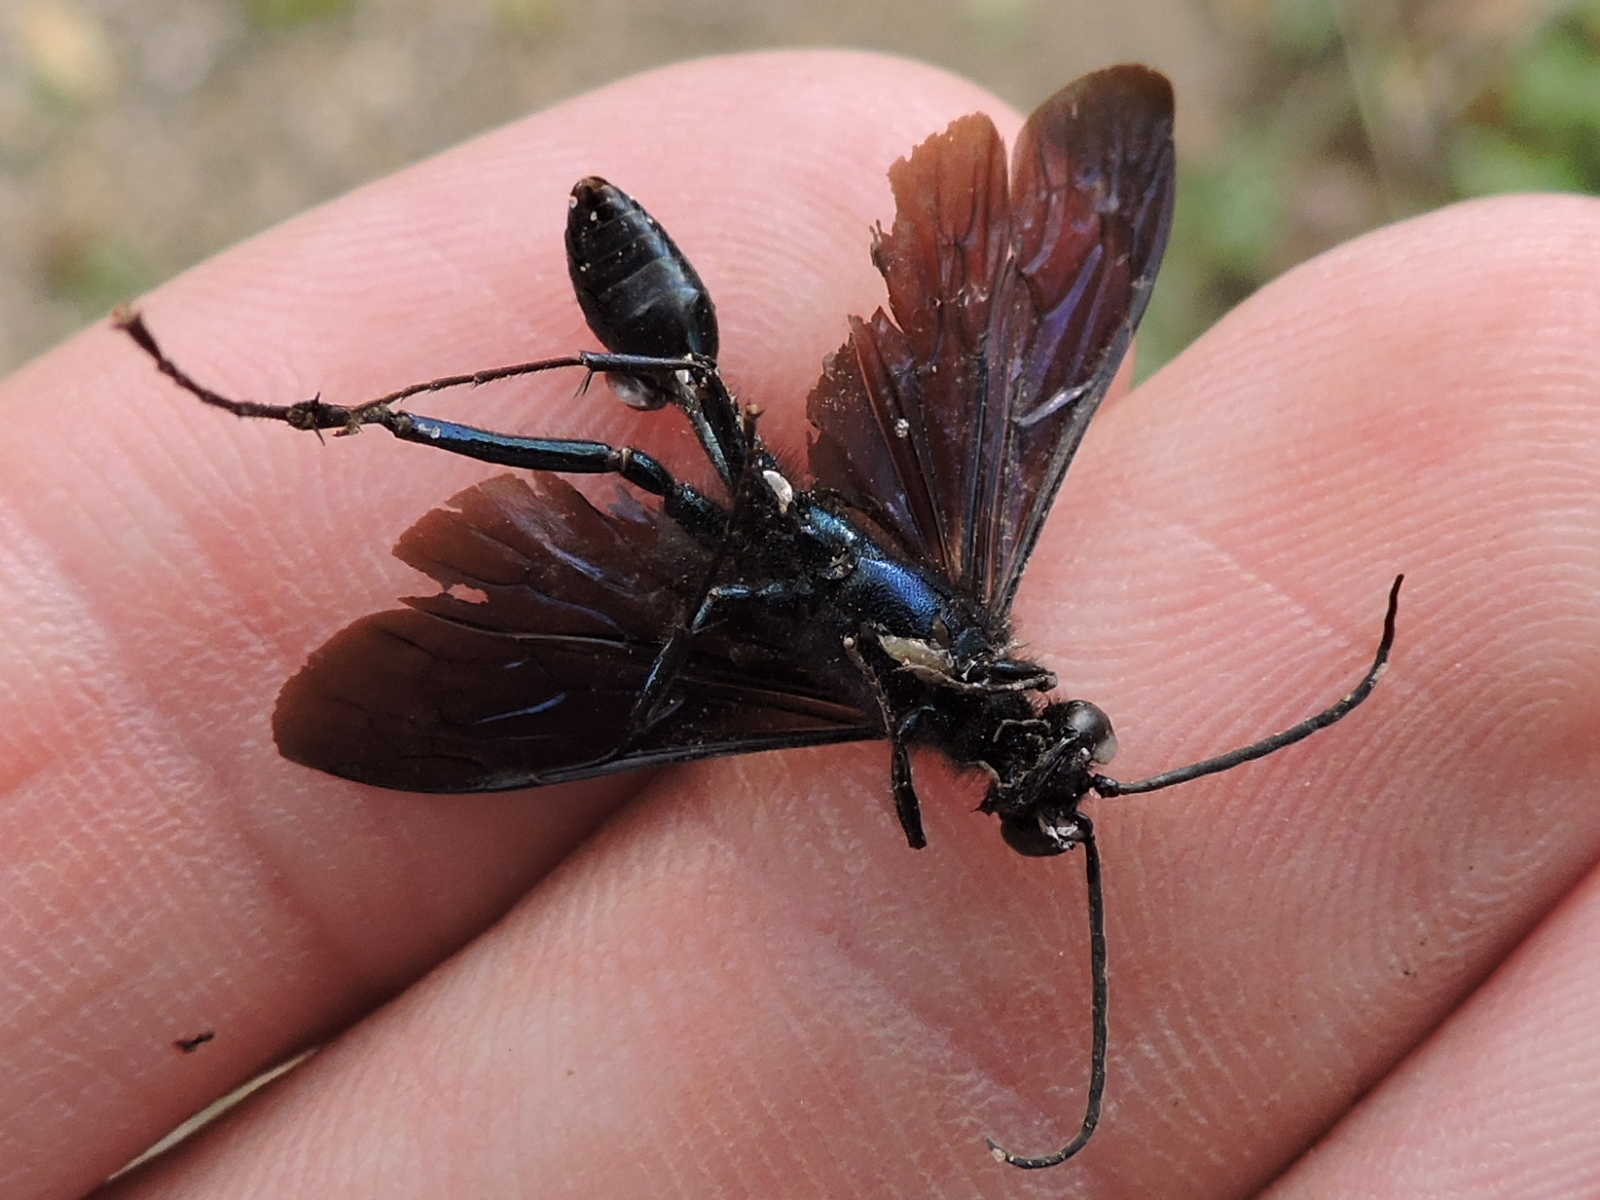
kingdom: Animalia
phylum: Arthropoda
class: Insecta
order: Hymenoptera
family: Sphecidae
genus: Chalybion
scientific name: Chalybion californicum
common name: Mud dauber
